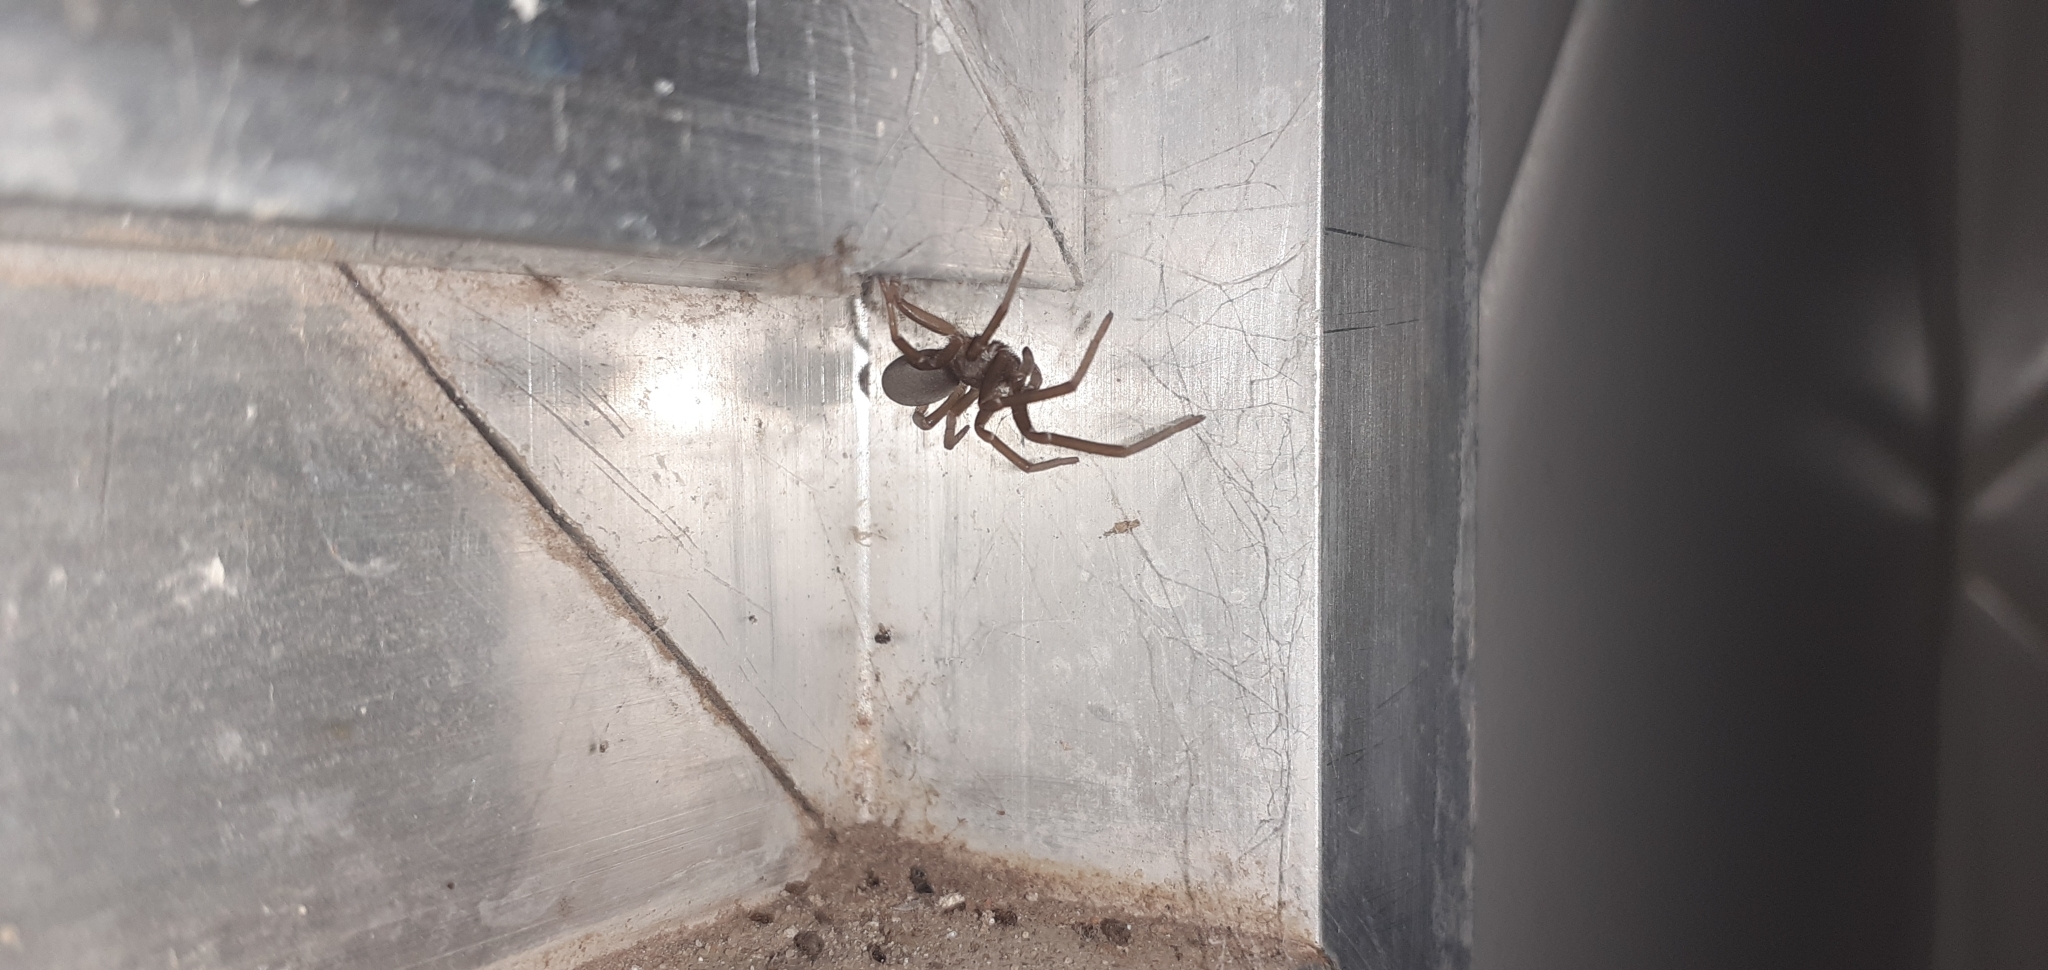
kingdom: Animalia
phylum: Arthropoda
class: Arachnida
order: Araneae
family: Filistatidae
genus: Kukulcania
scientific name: Kukulcania hibernalis
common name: Crevice weaver
